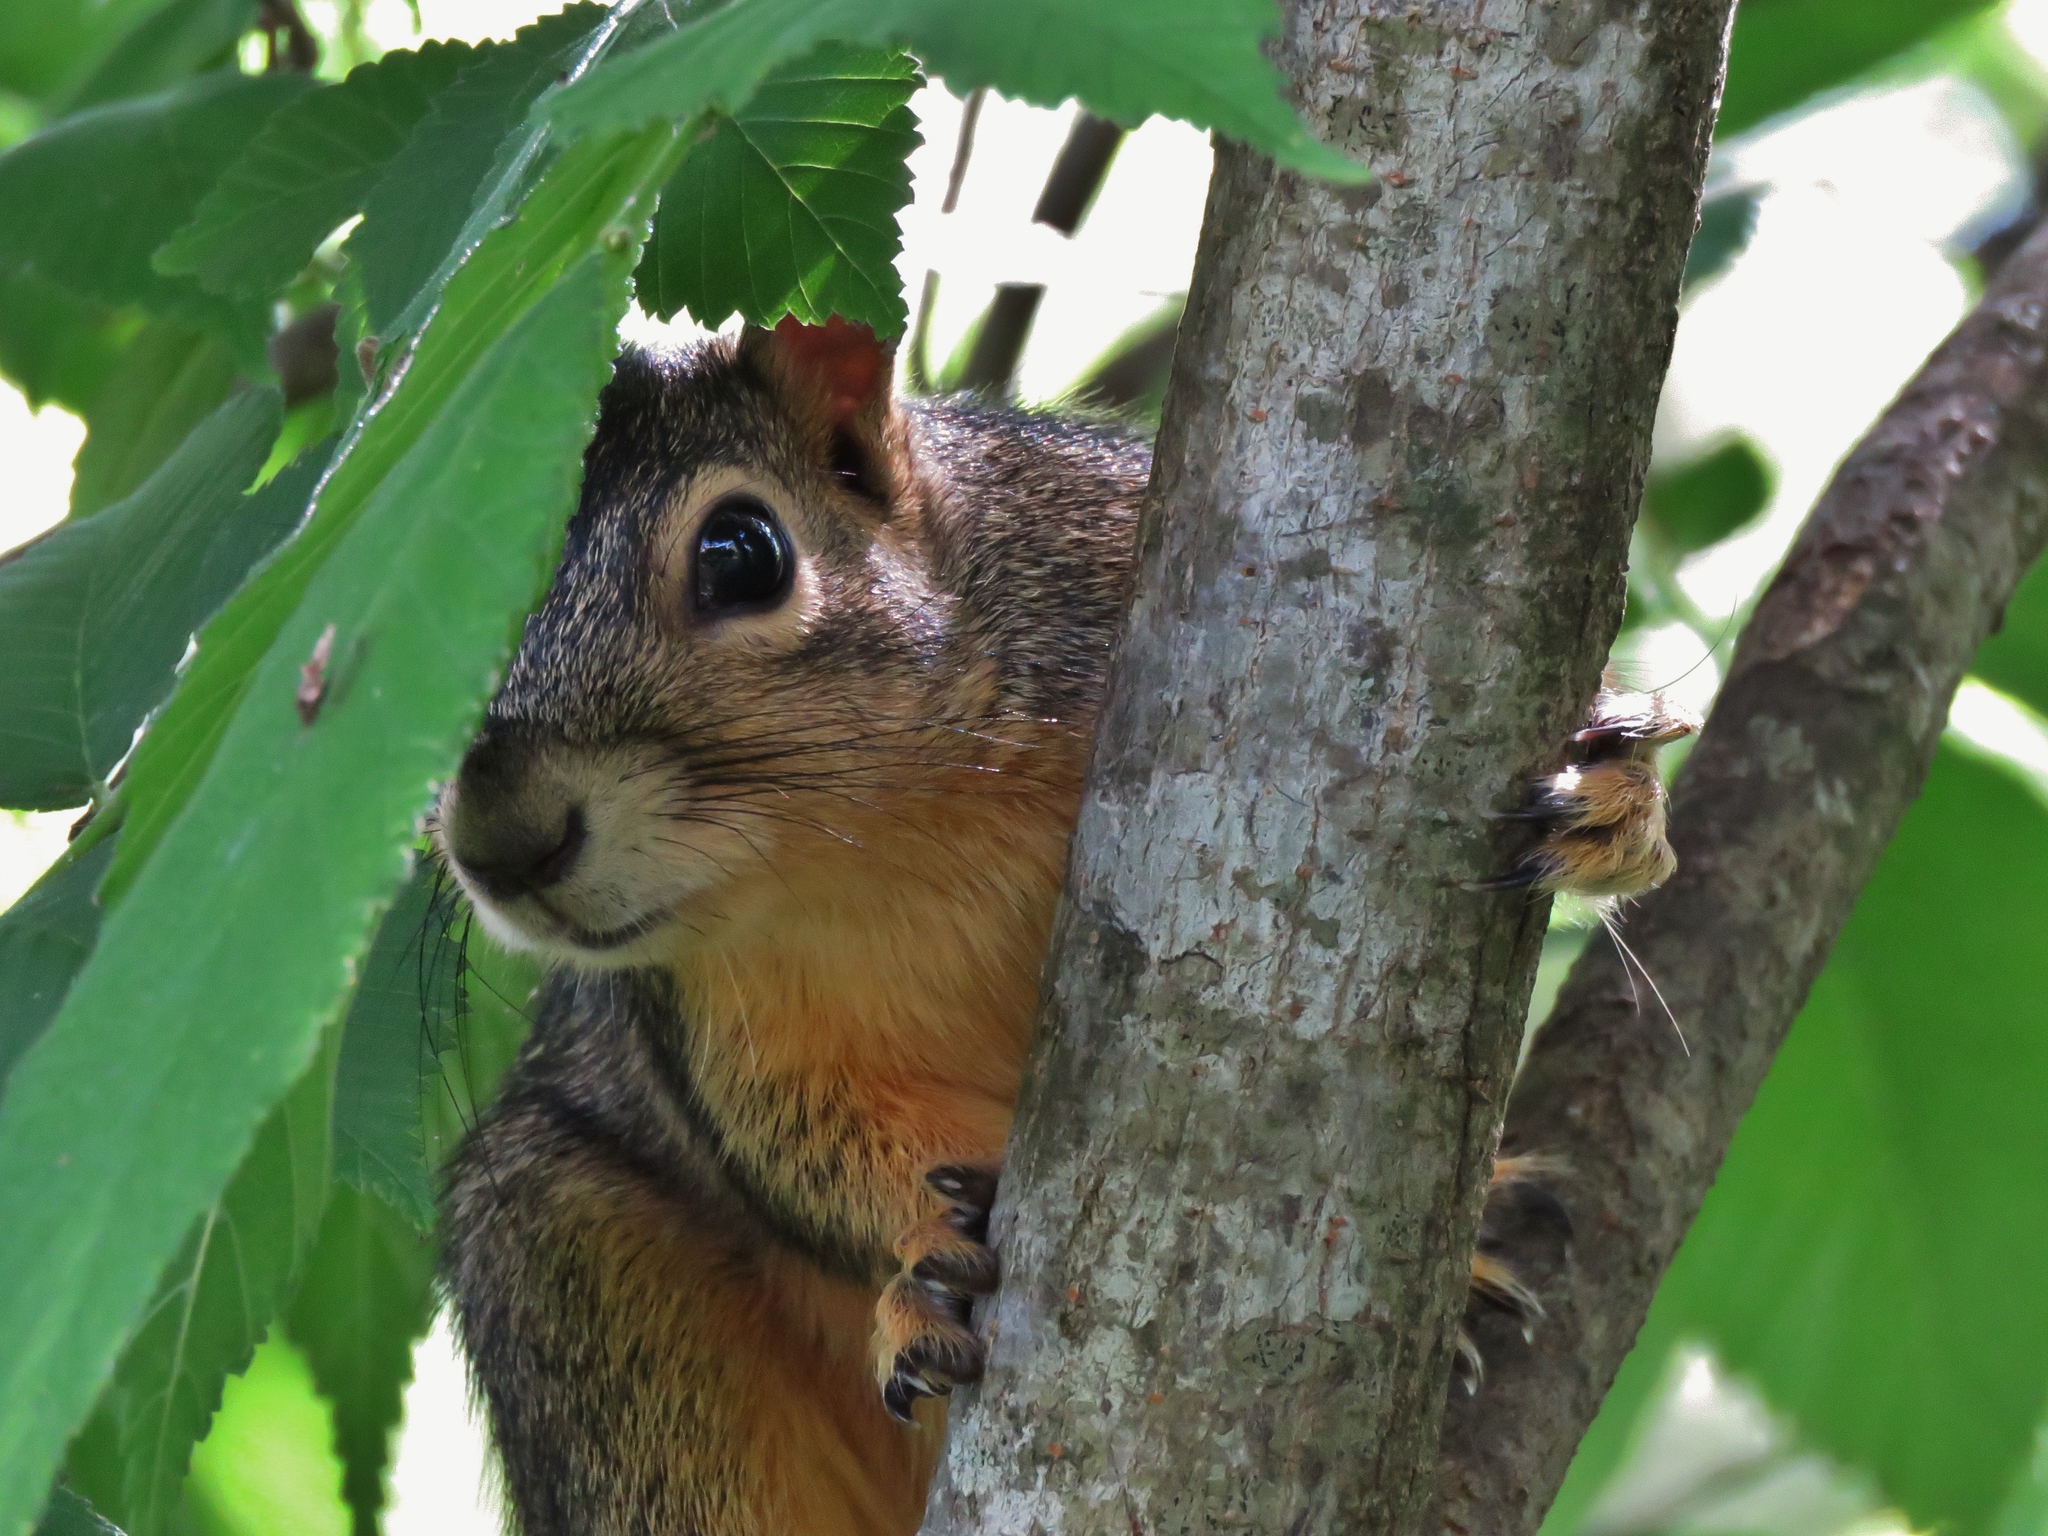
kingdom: Animalia
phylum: Chordata
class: Mammalia
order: Rodentia
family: Sciuridae
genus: Sciurus
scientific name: Sciurus niger
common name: Fox squirrel
